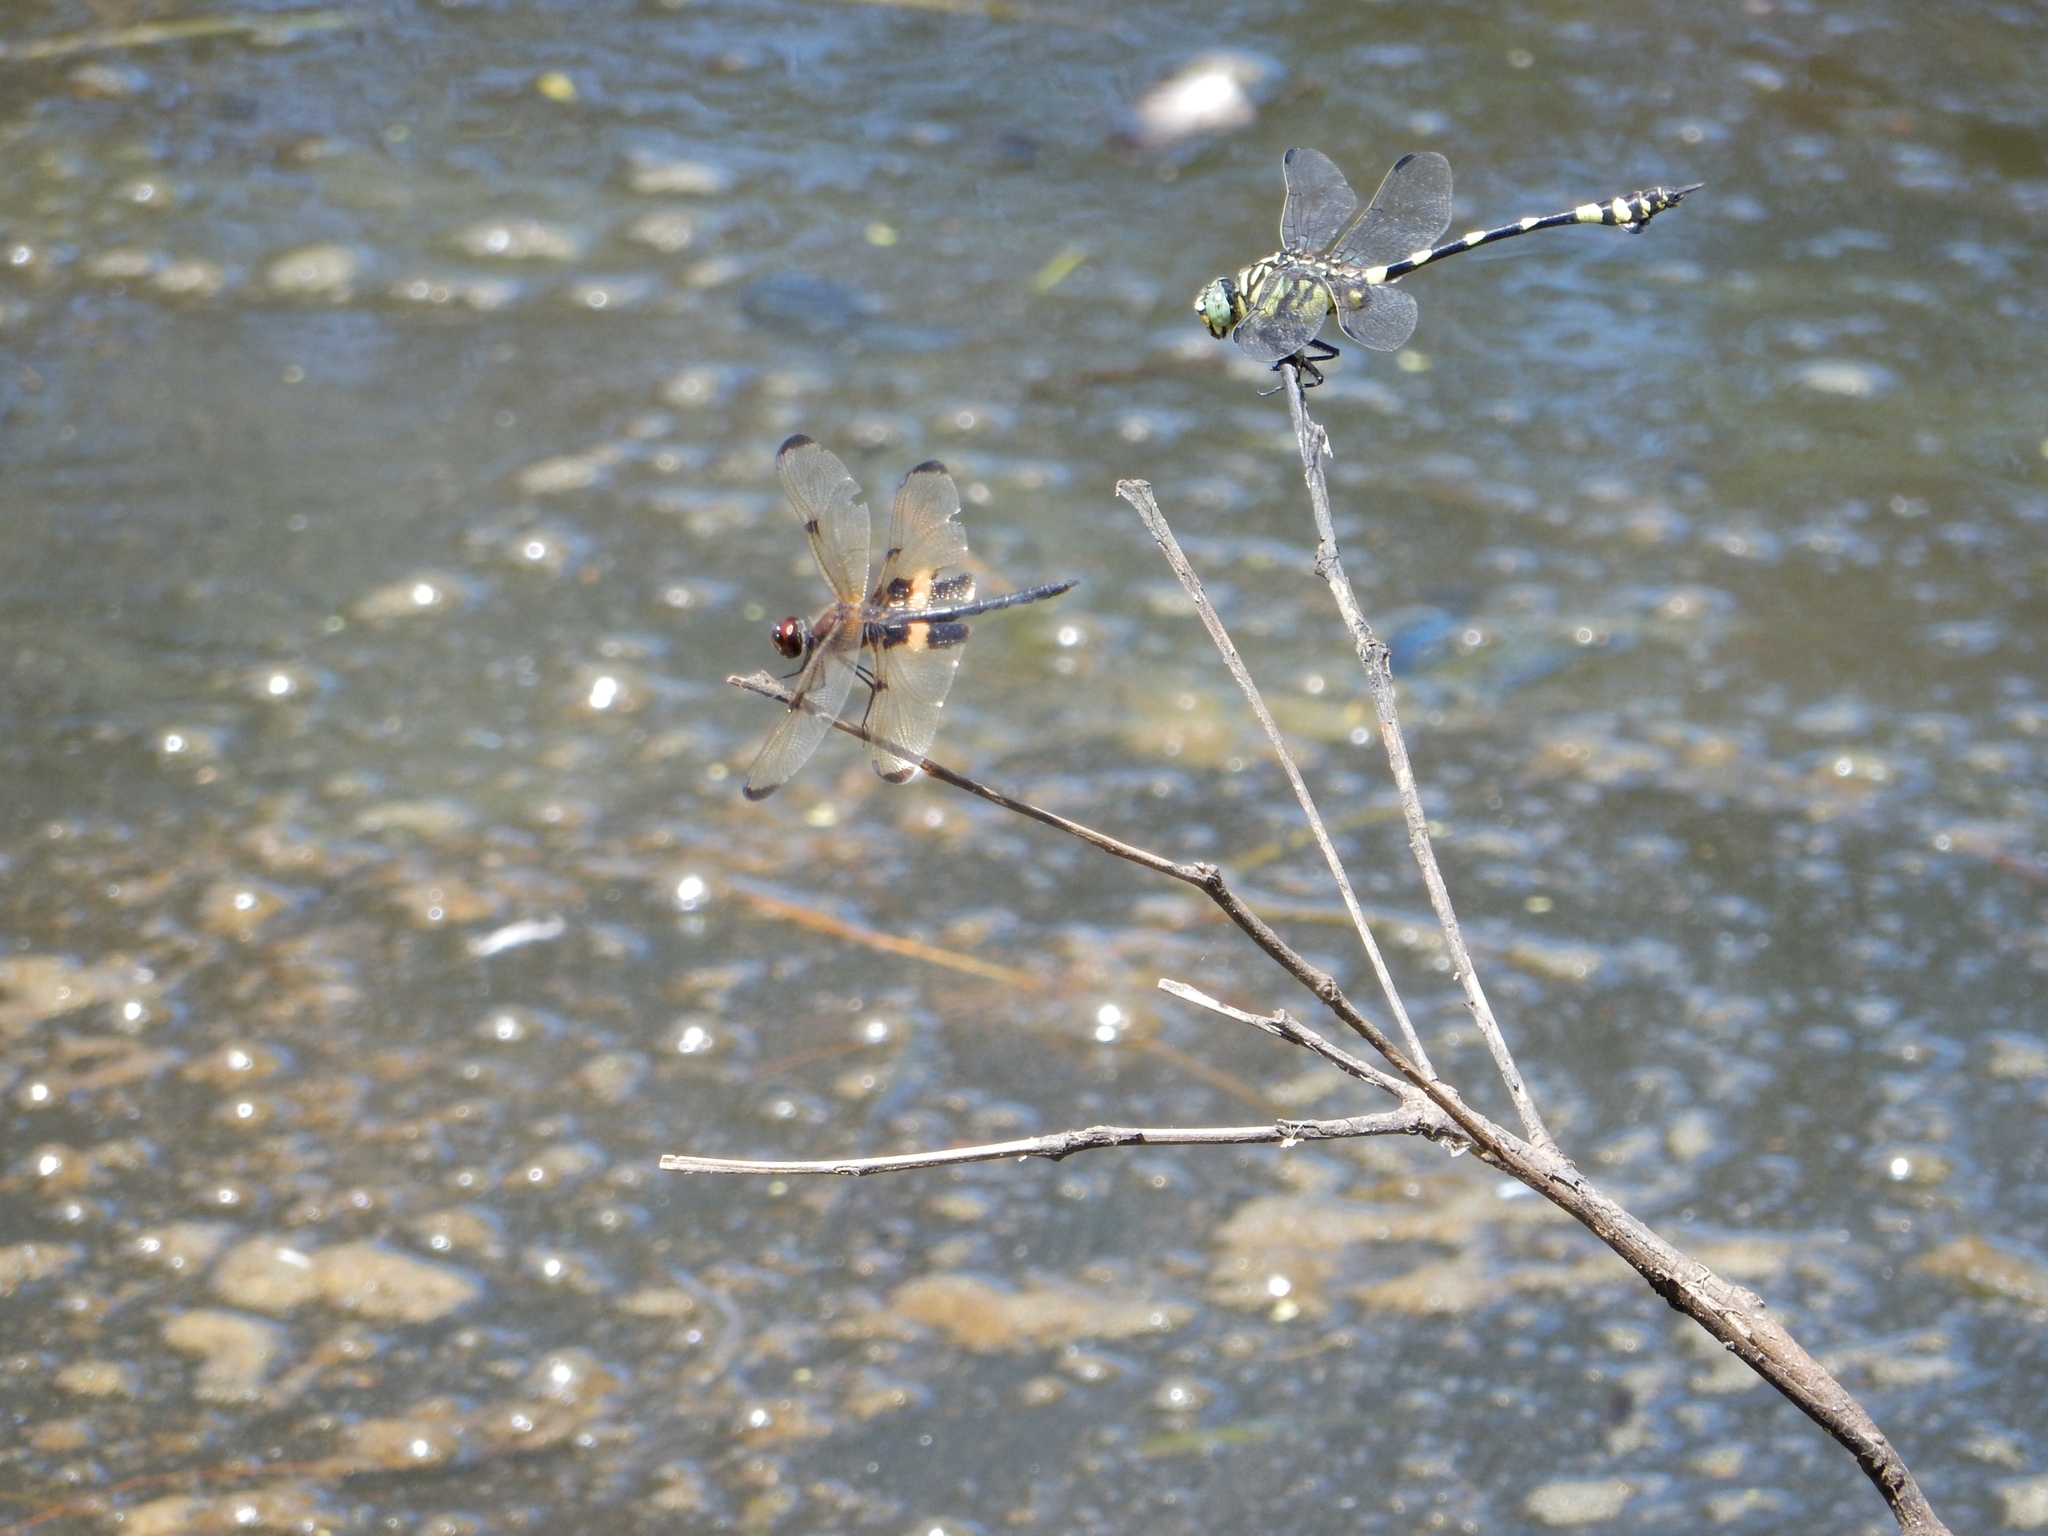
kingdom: Animalia
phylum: Arthropoda
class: Insecta
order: Odonata
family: Gomphidae
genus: Ictinogomphus
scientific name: Ictinogomphus australis
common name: Australian tiger
